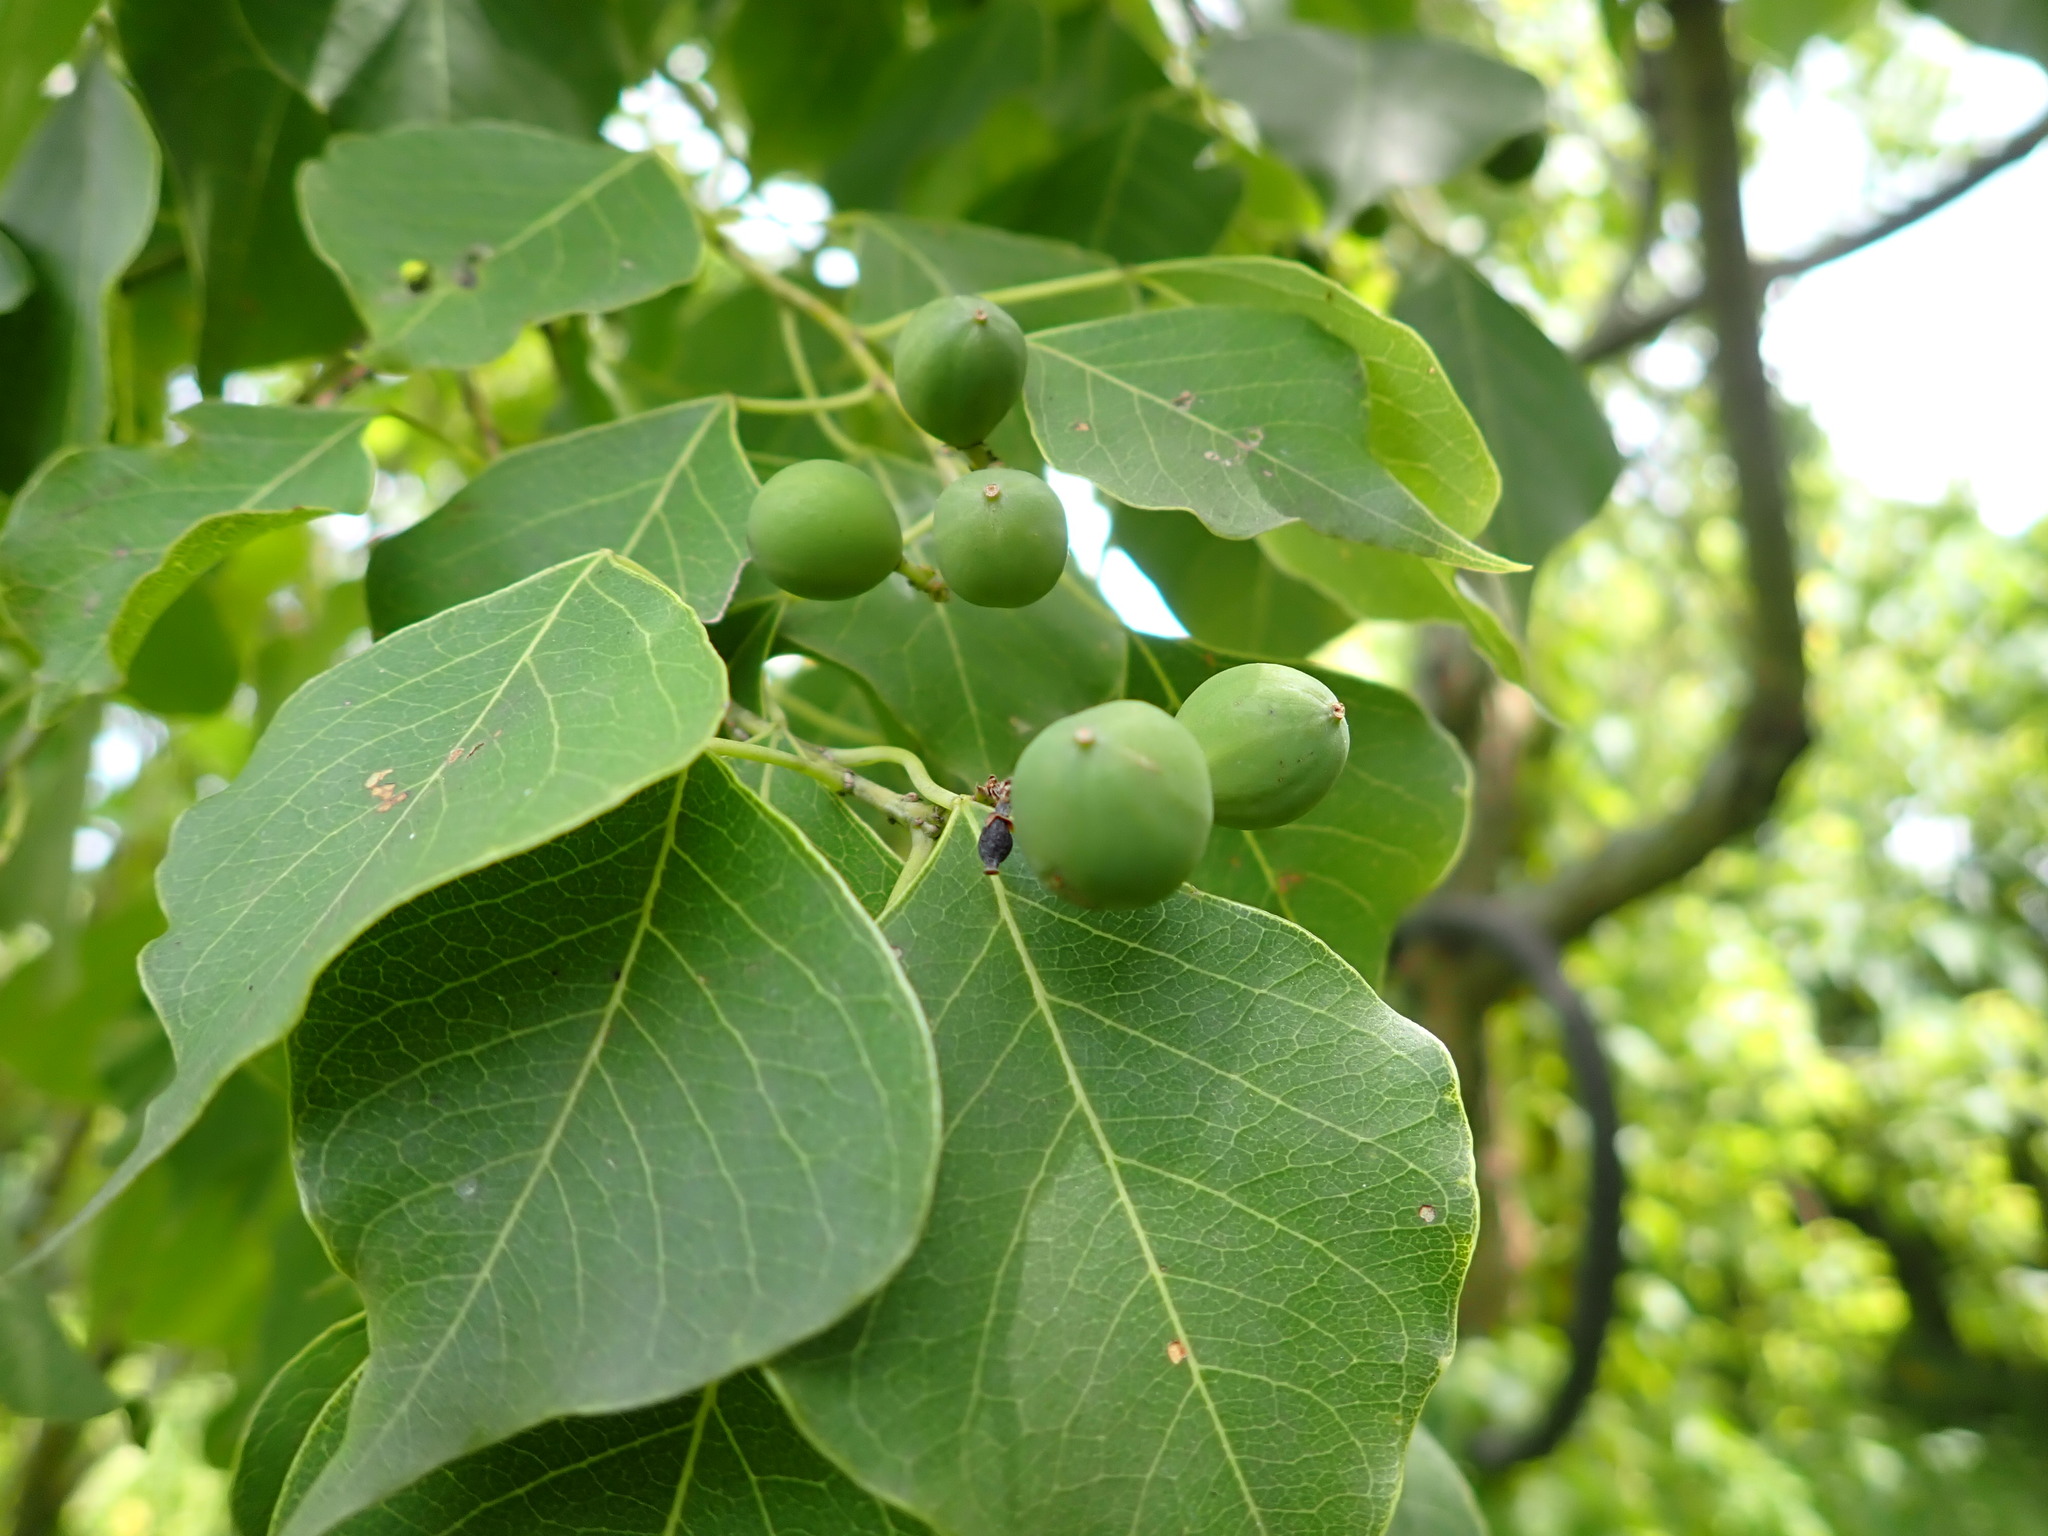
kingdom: Plantae
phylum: Tracheophyta
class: Magnoliopsida
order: Malpighiales
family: Euphorbiaceae
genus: Triadica
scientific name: Triadica sebifera
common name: Chinese tallow
